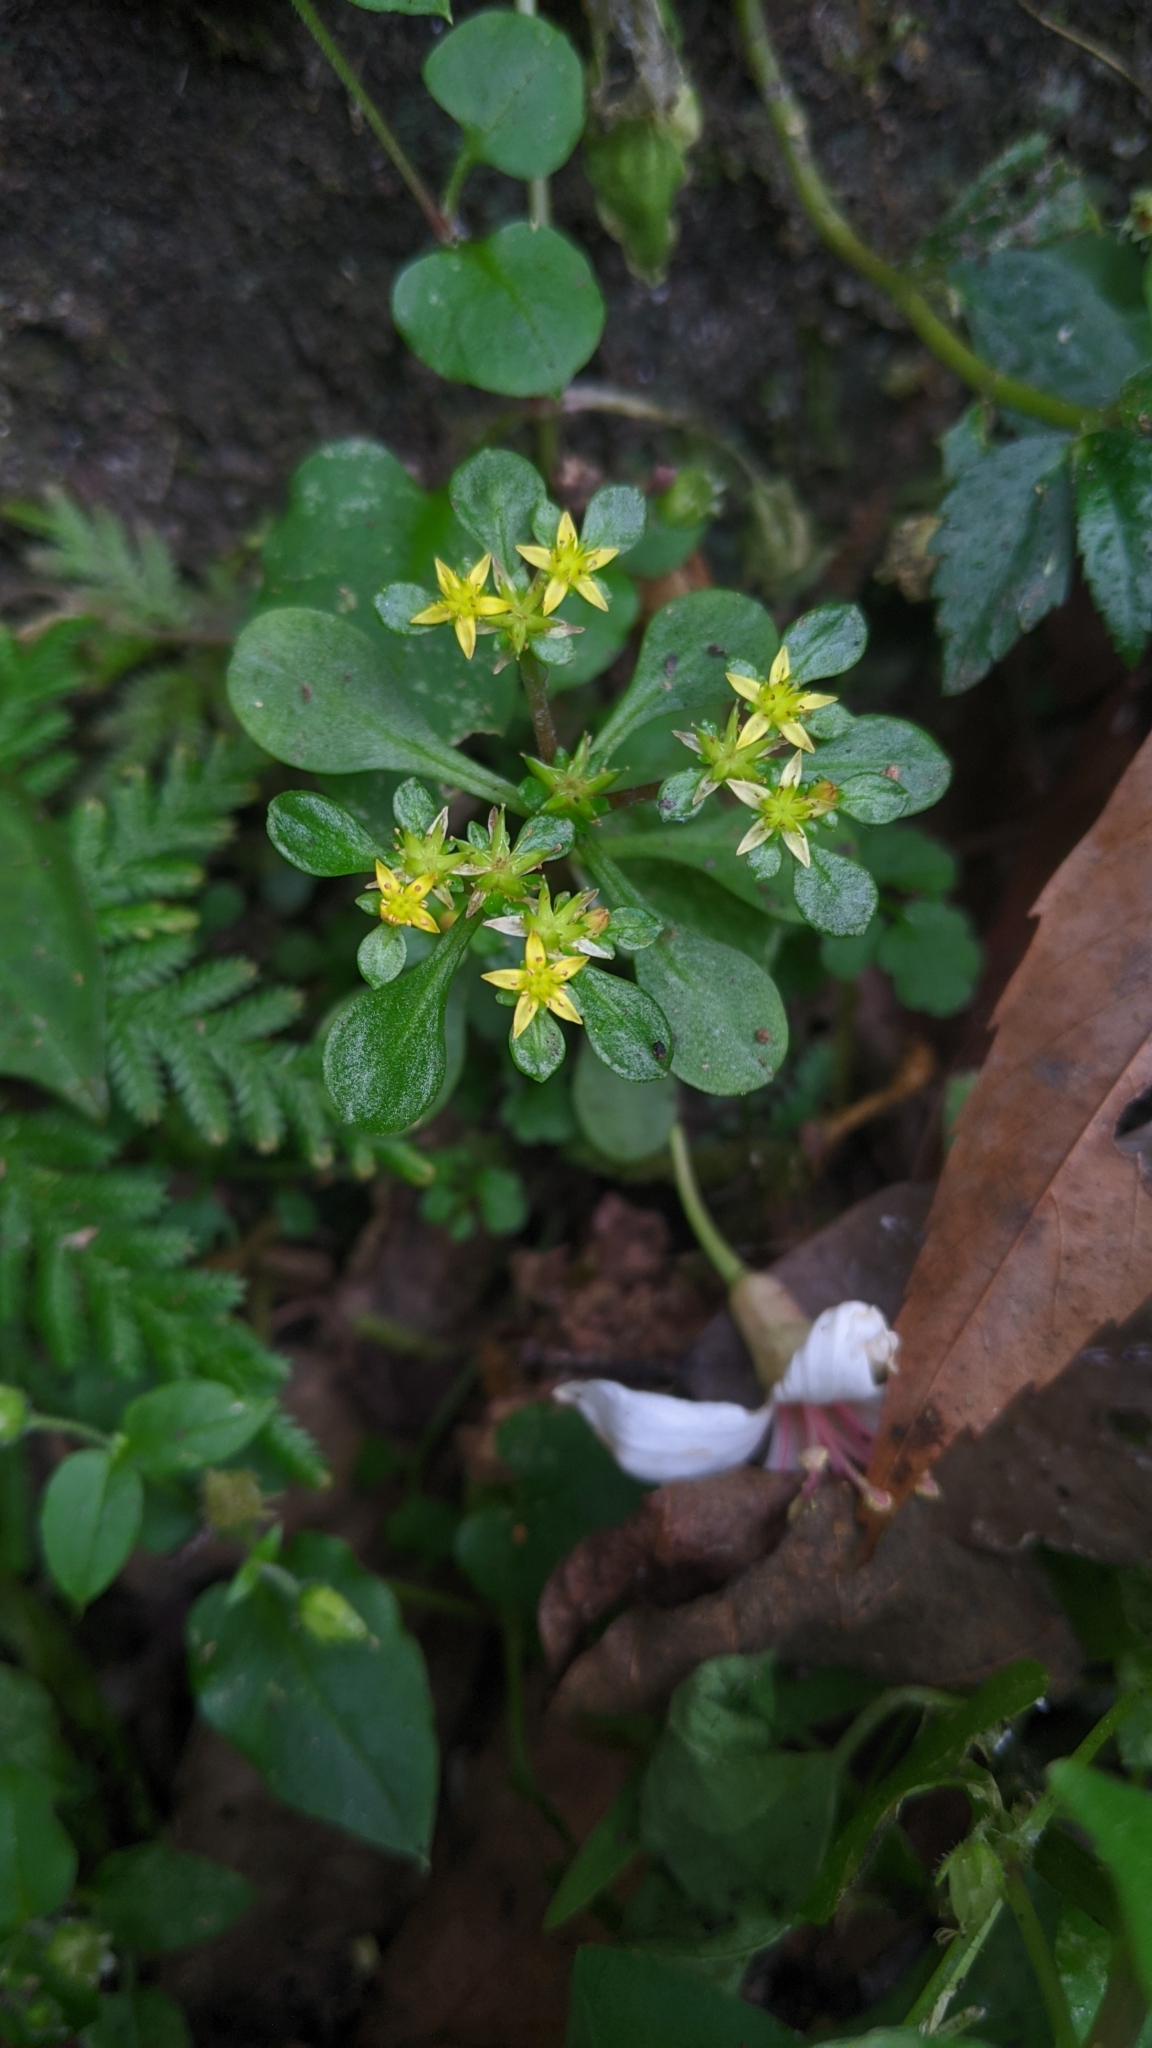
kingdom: Plantae
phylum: Tracheophyta
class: Magnoliopsida
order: Saxifragales
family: Crassulaceae
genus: Sedum
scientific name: Sedum actinocarpum
